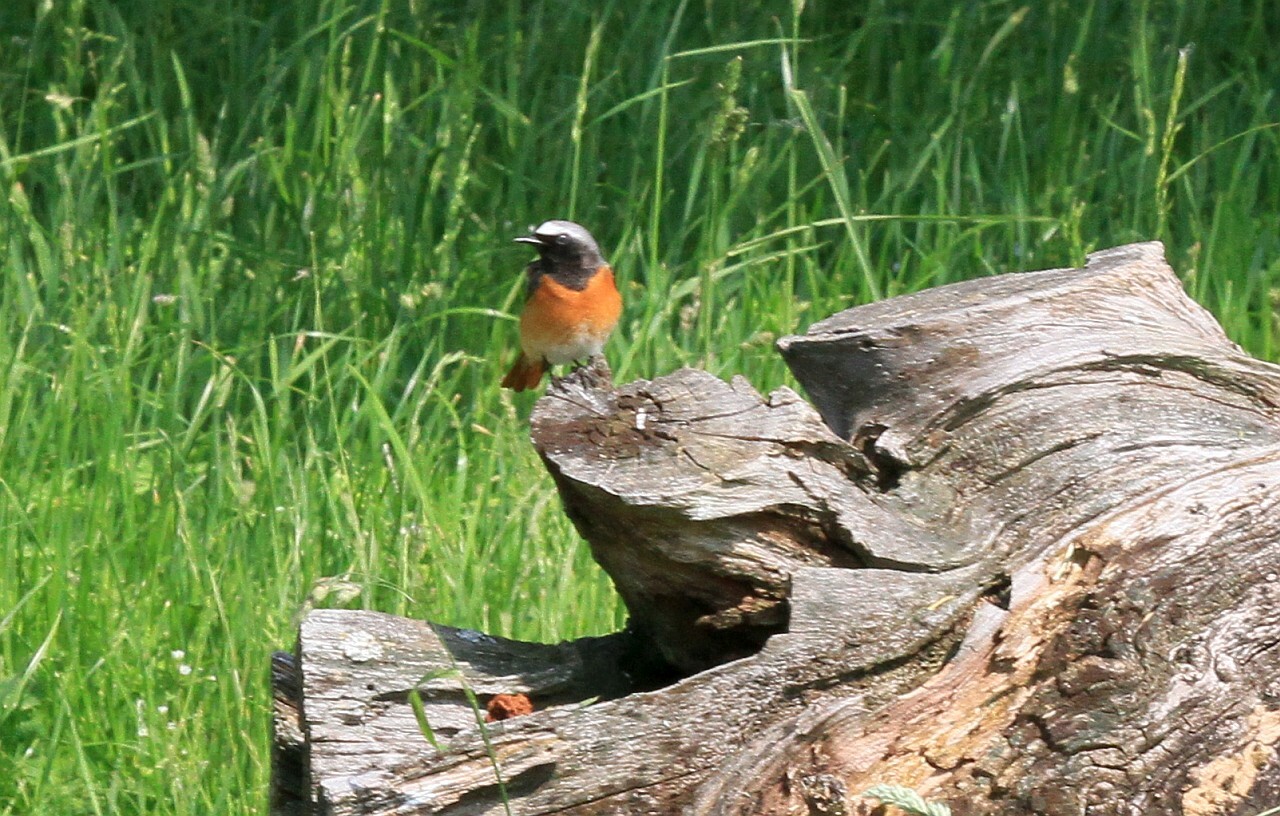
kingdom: Animalia
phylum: Chordata
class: Aves
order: Passeriformes
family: Muscicapidae
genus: Phoenicurus
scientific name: Phoenicurus phoenicurus
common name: Common redstart
